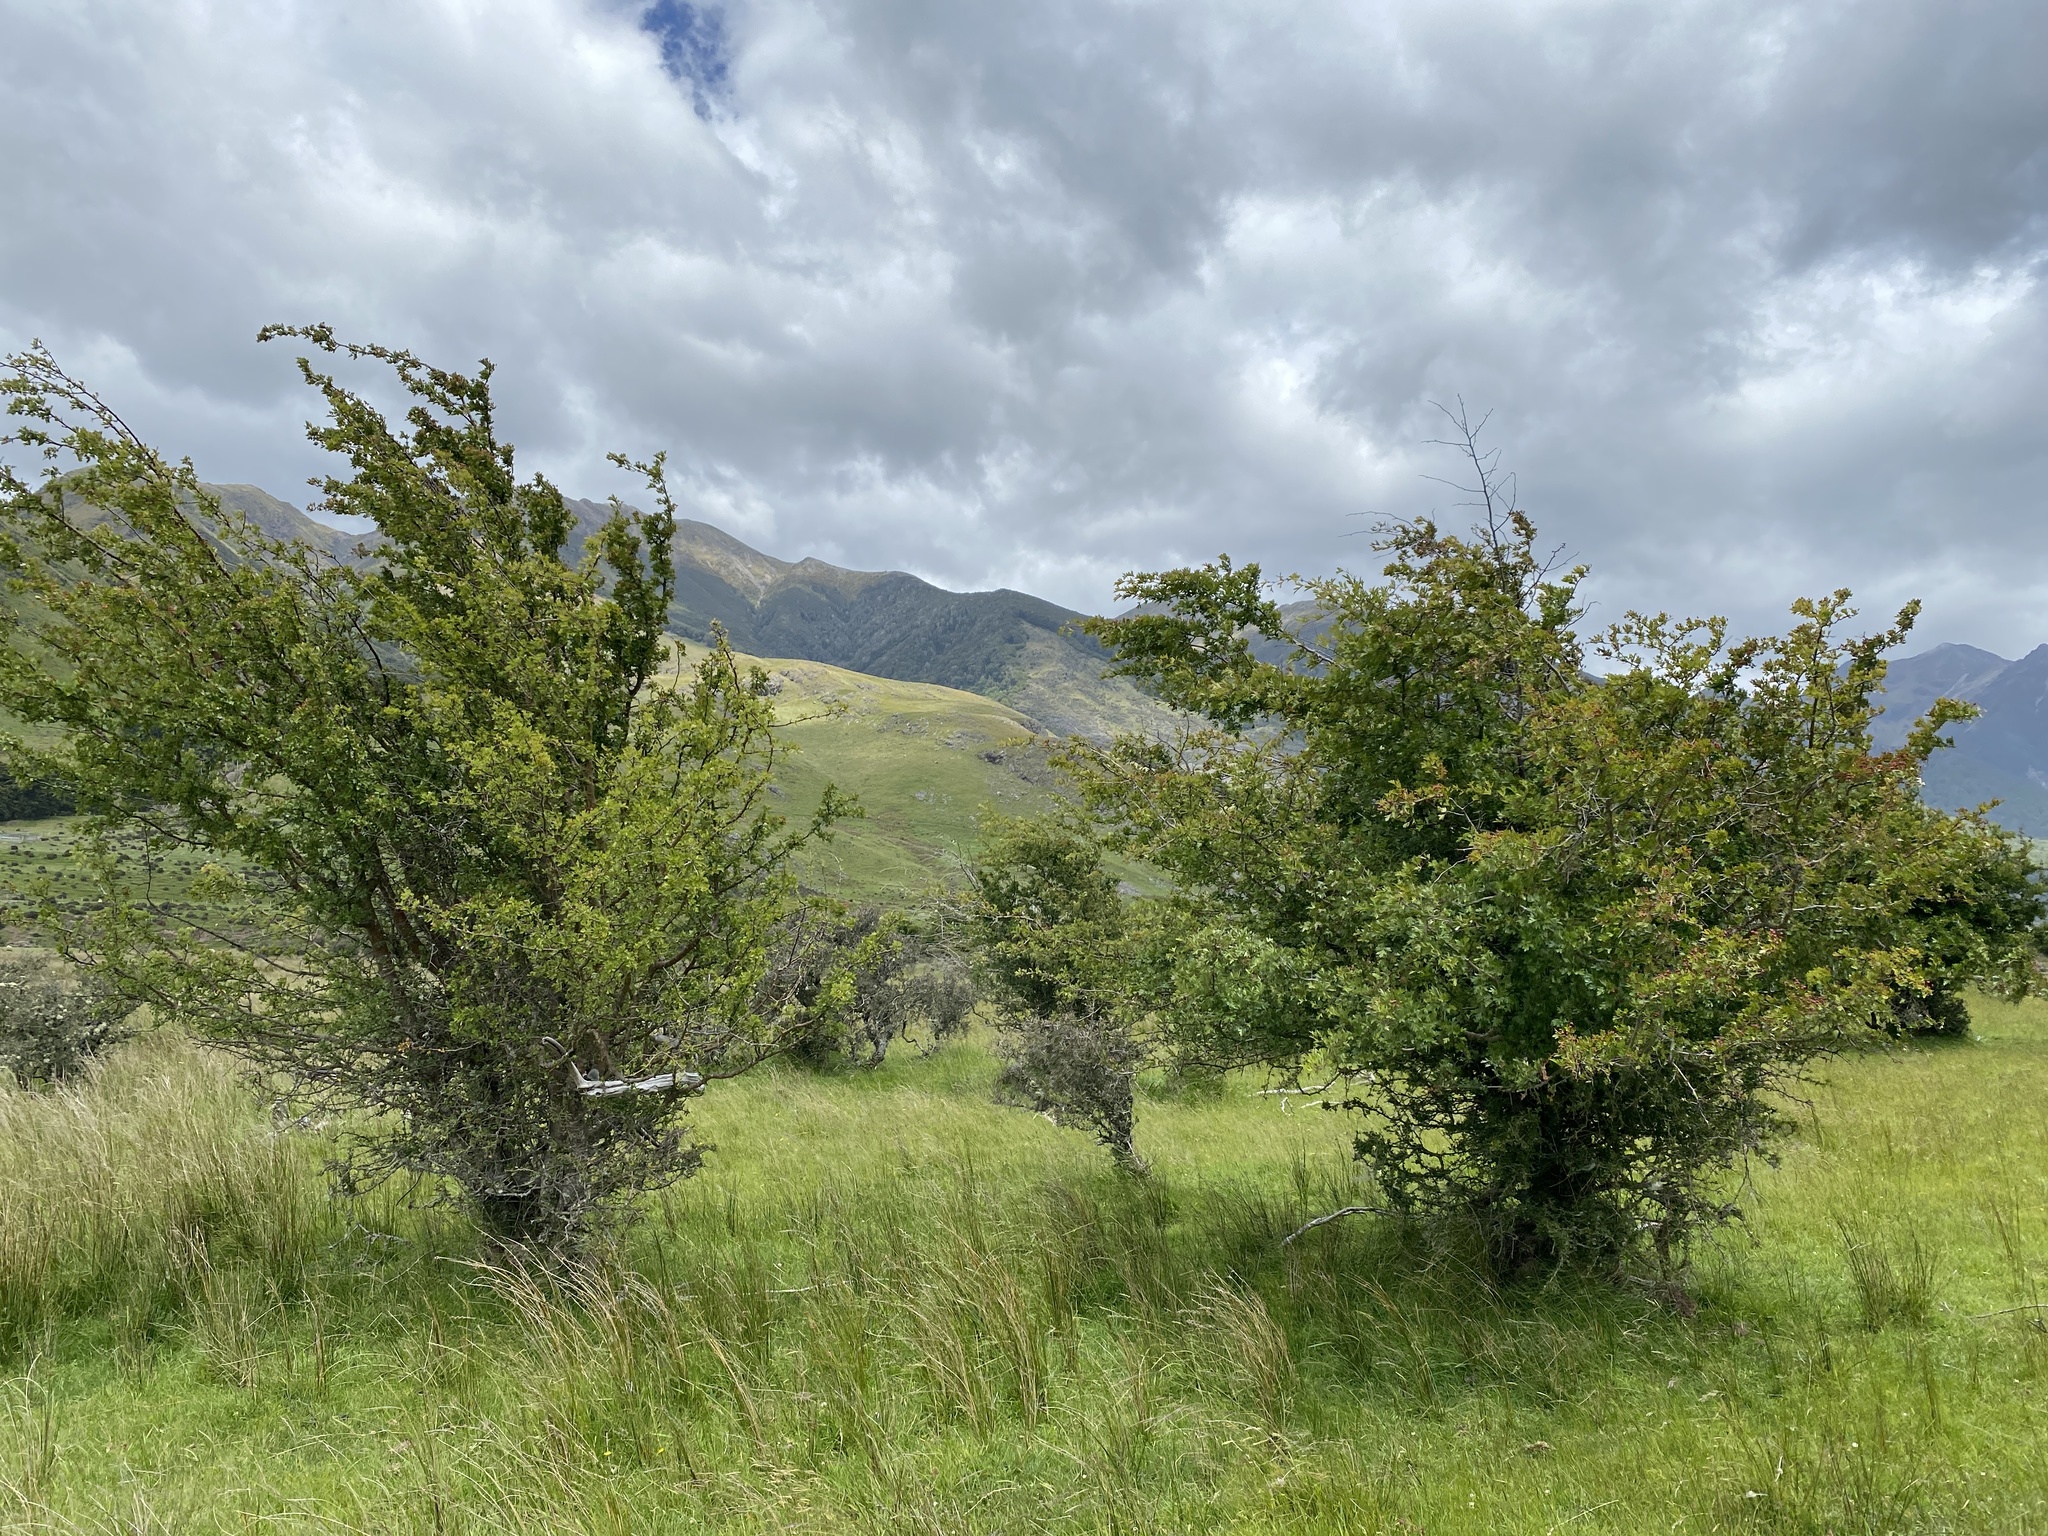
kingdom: Plantae
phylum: Tracheophyta
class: Magnoliopsida
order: Rosales
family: Rosaceae
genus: Crataegus
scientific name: Crataegus monogyna
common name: Hawthorn
